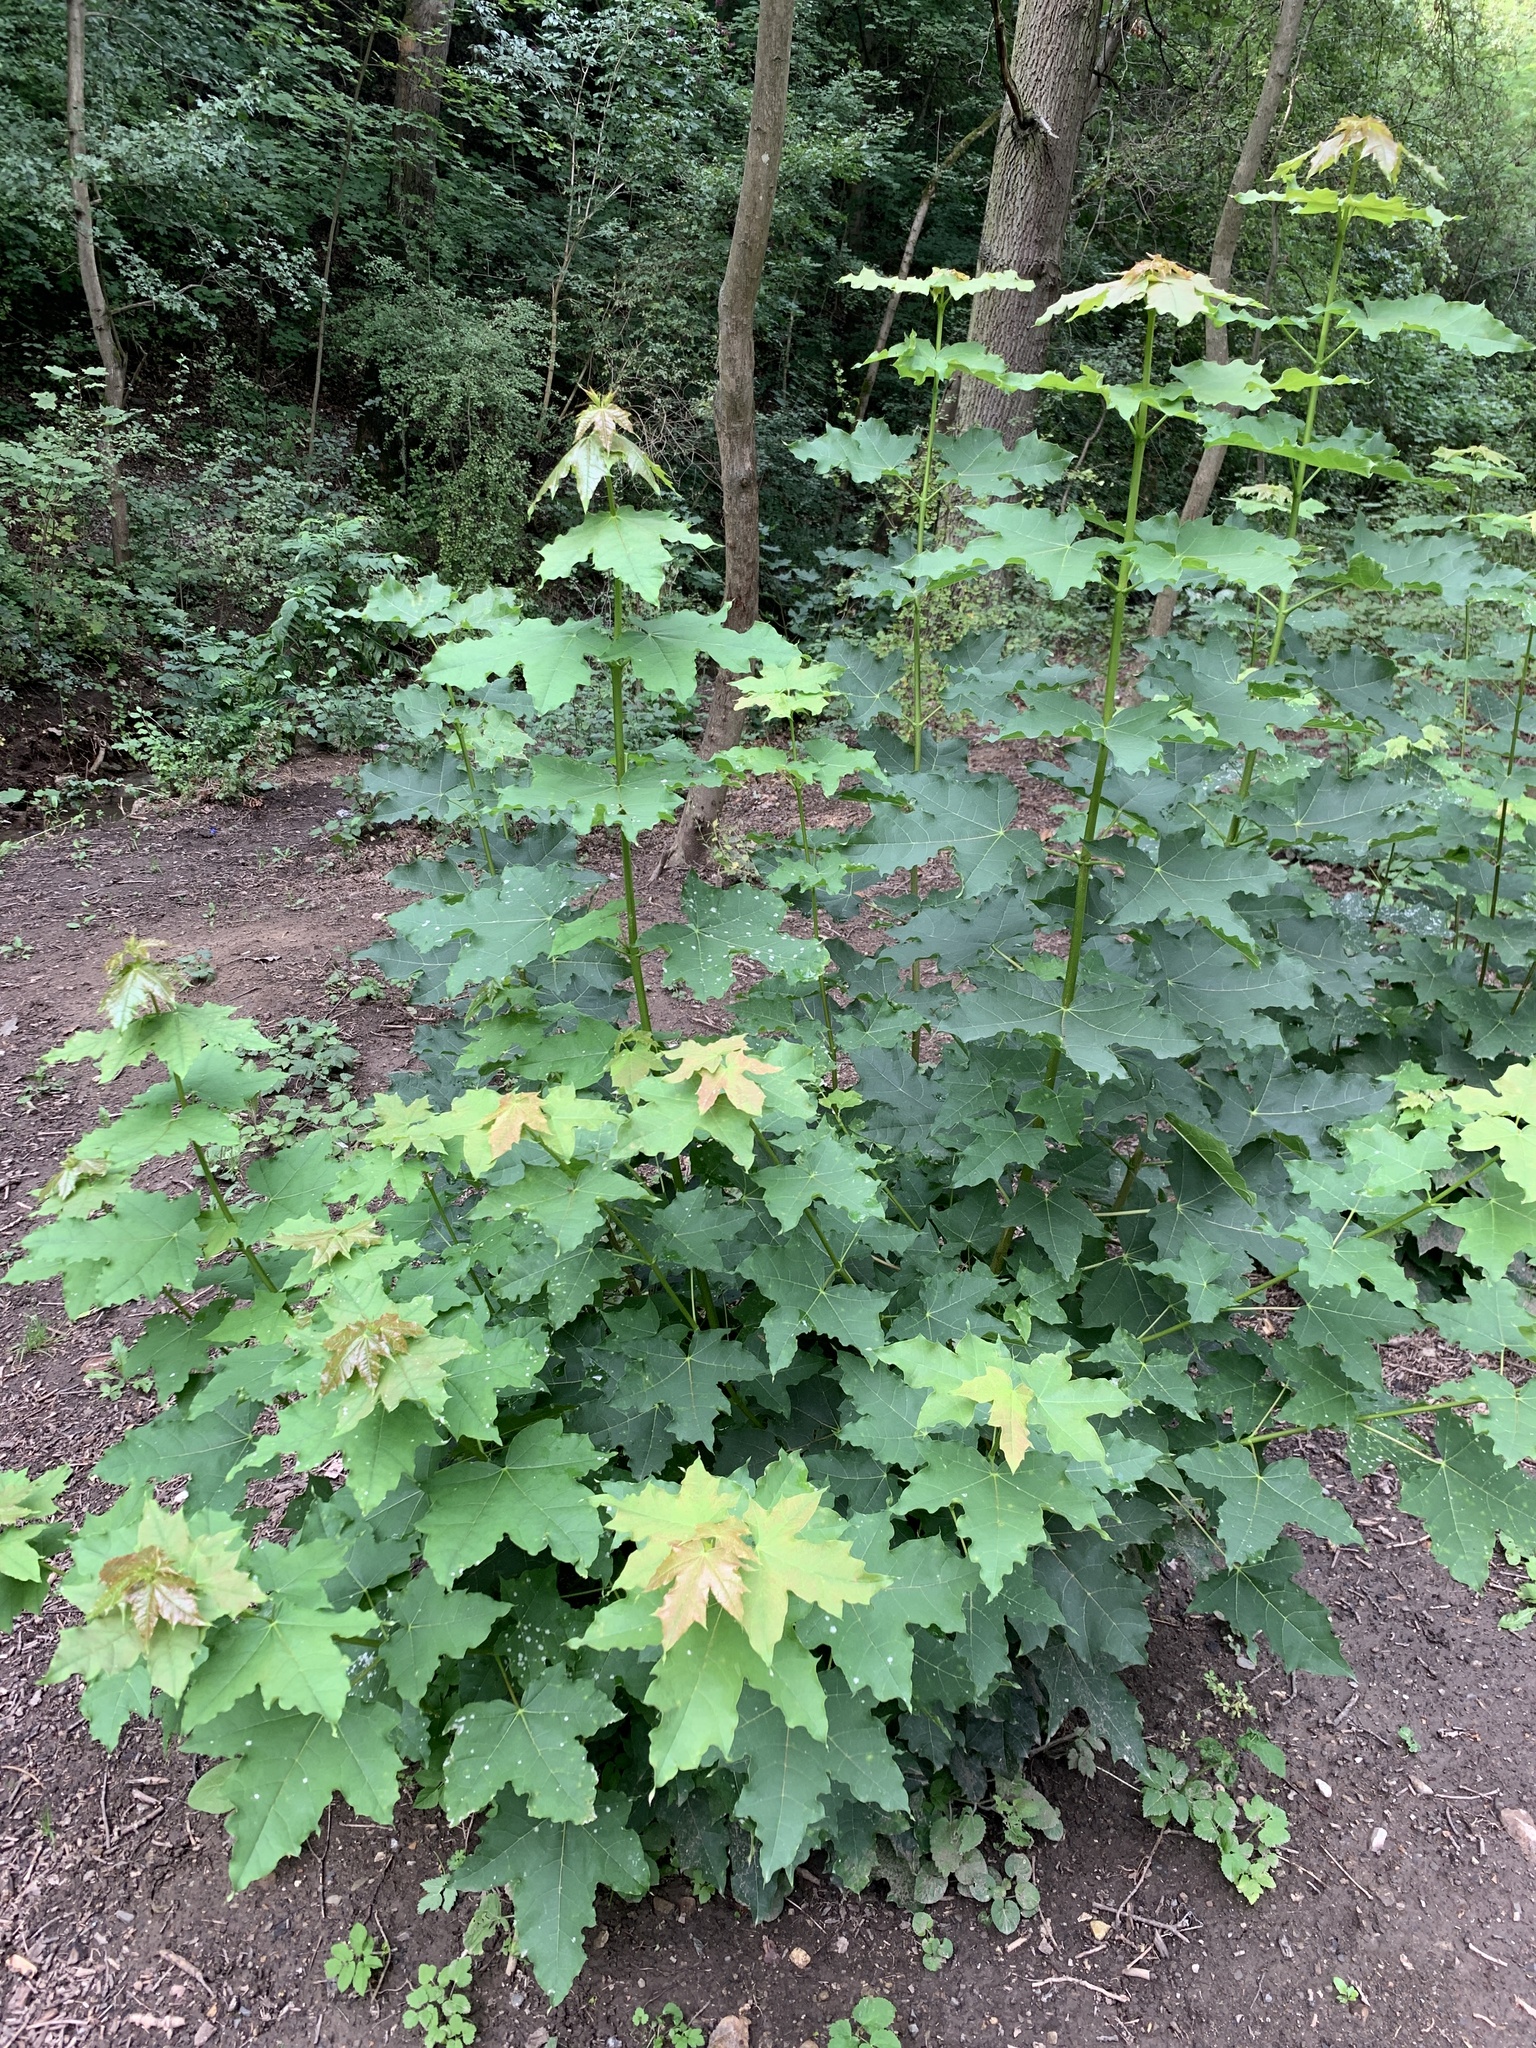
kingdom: Plantae
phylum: Tracheophyta
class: Magnoliopsida
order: Sapindales
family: Sapindaceae
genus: Acer
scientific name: Acer platanoides
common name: Norway maple
